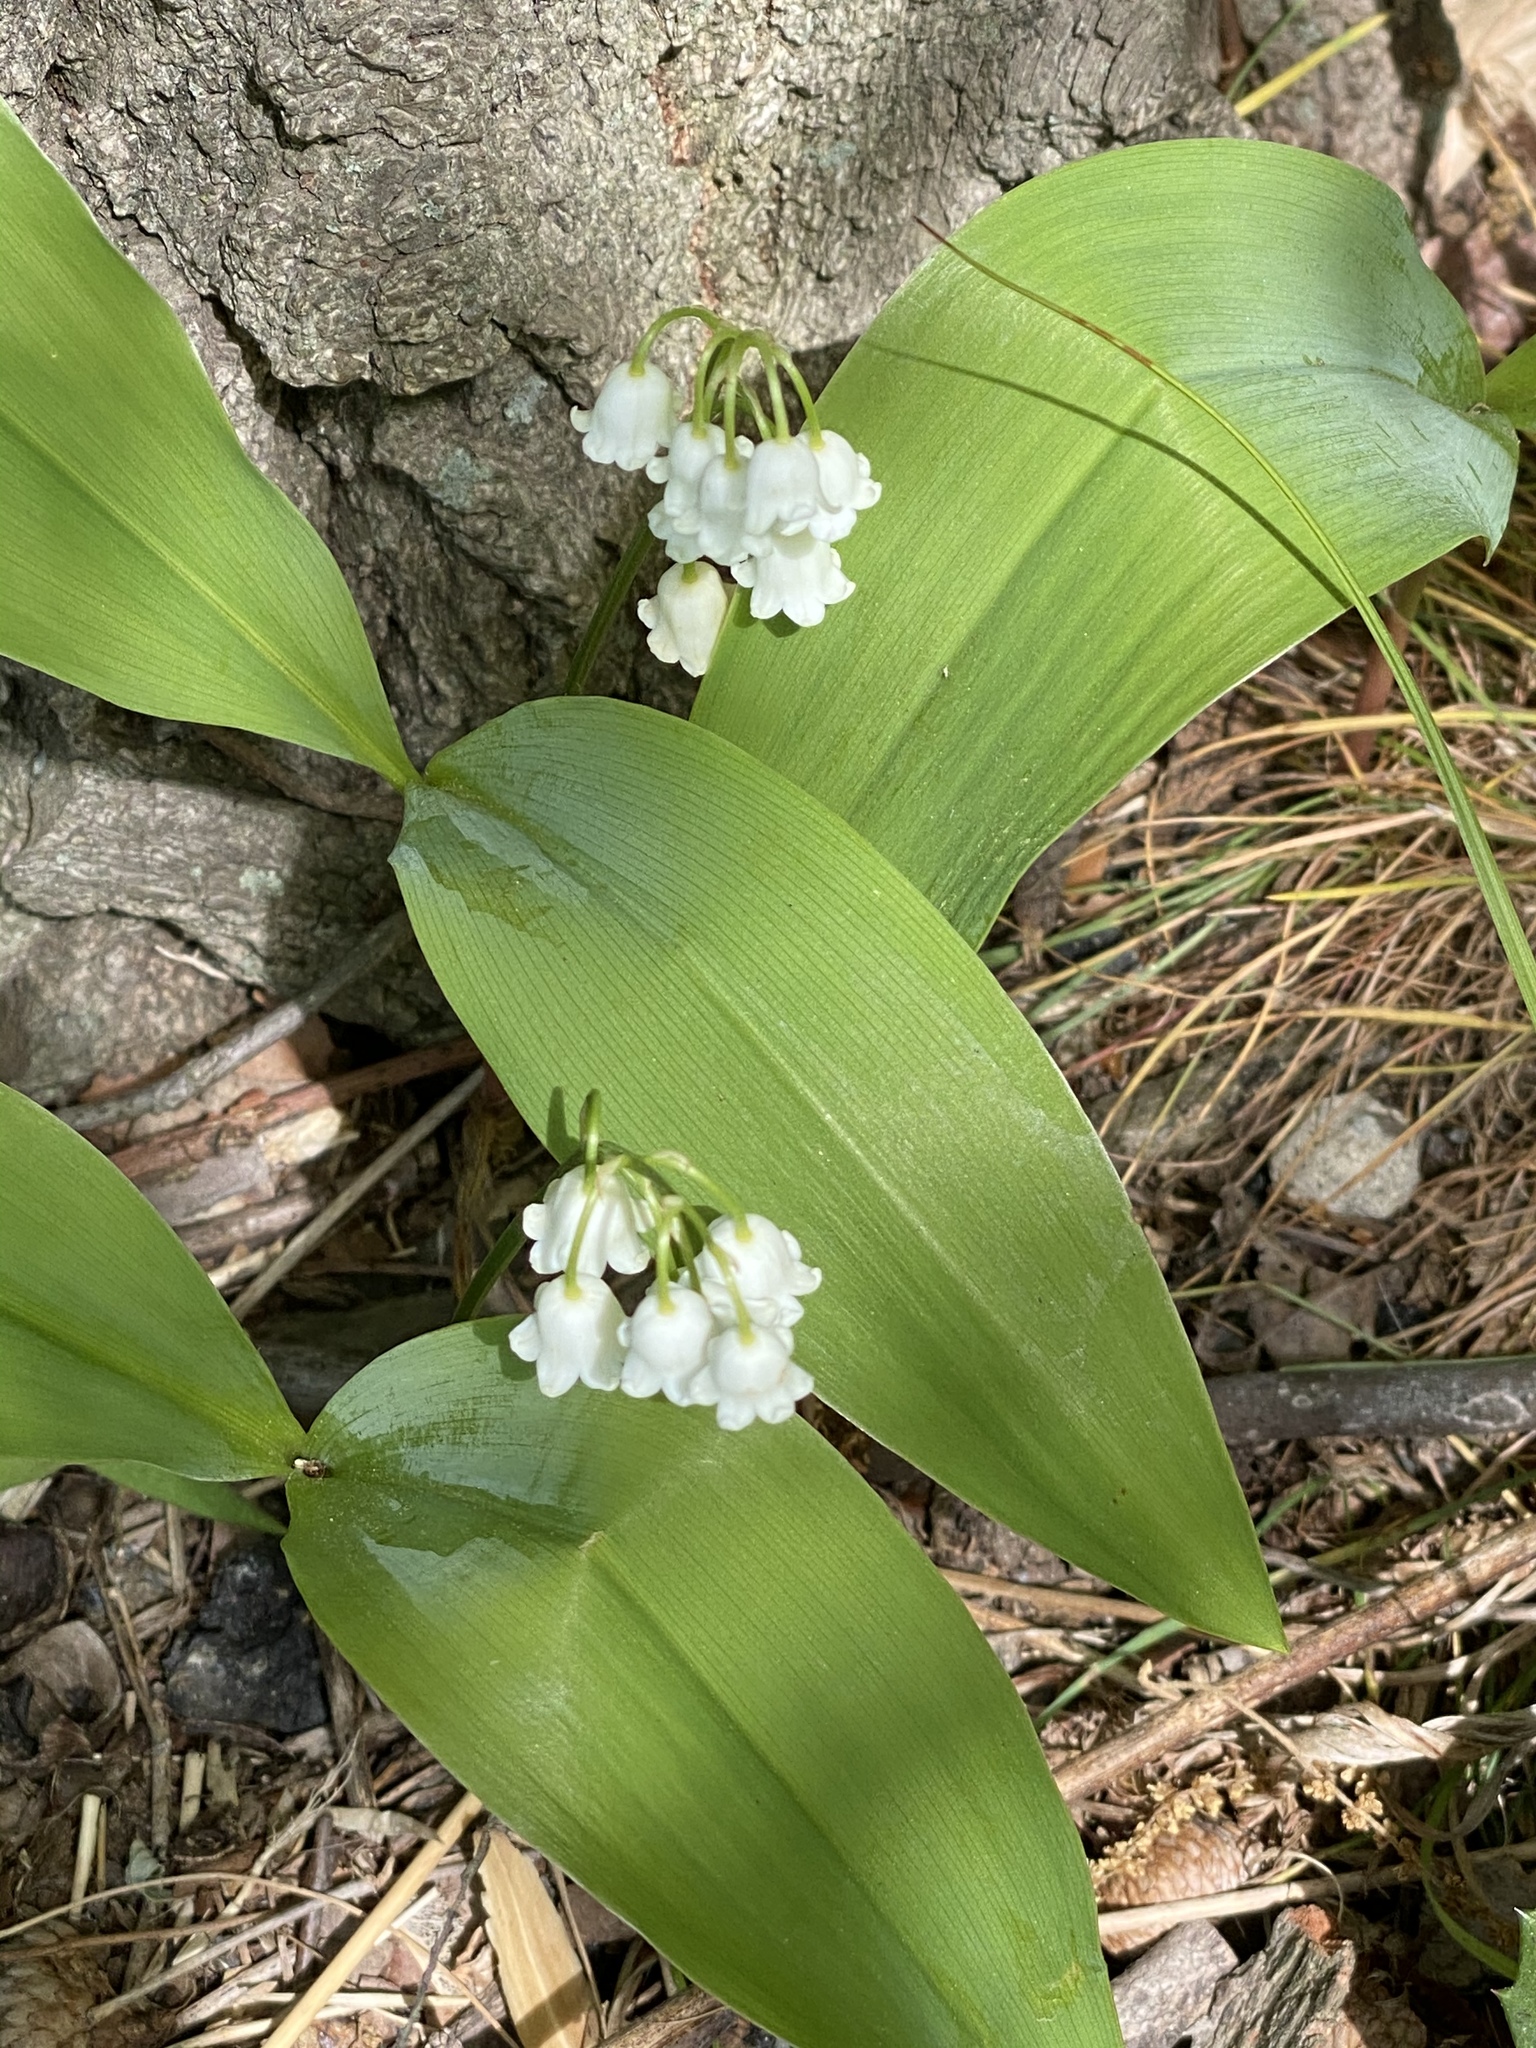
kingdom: Plantae
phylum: Tracheophyta
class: Liliopsida
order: Asparagales
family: Asparagaceae
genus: Convallaria
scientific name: Convallaria majalis
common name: Lily-of-the-valley
